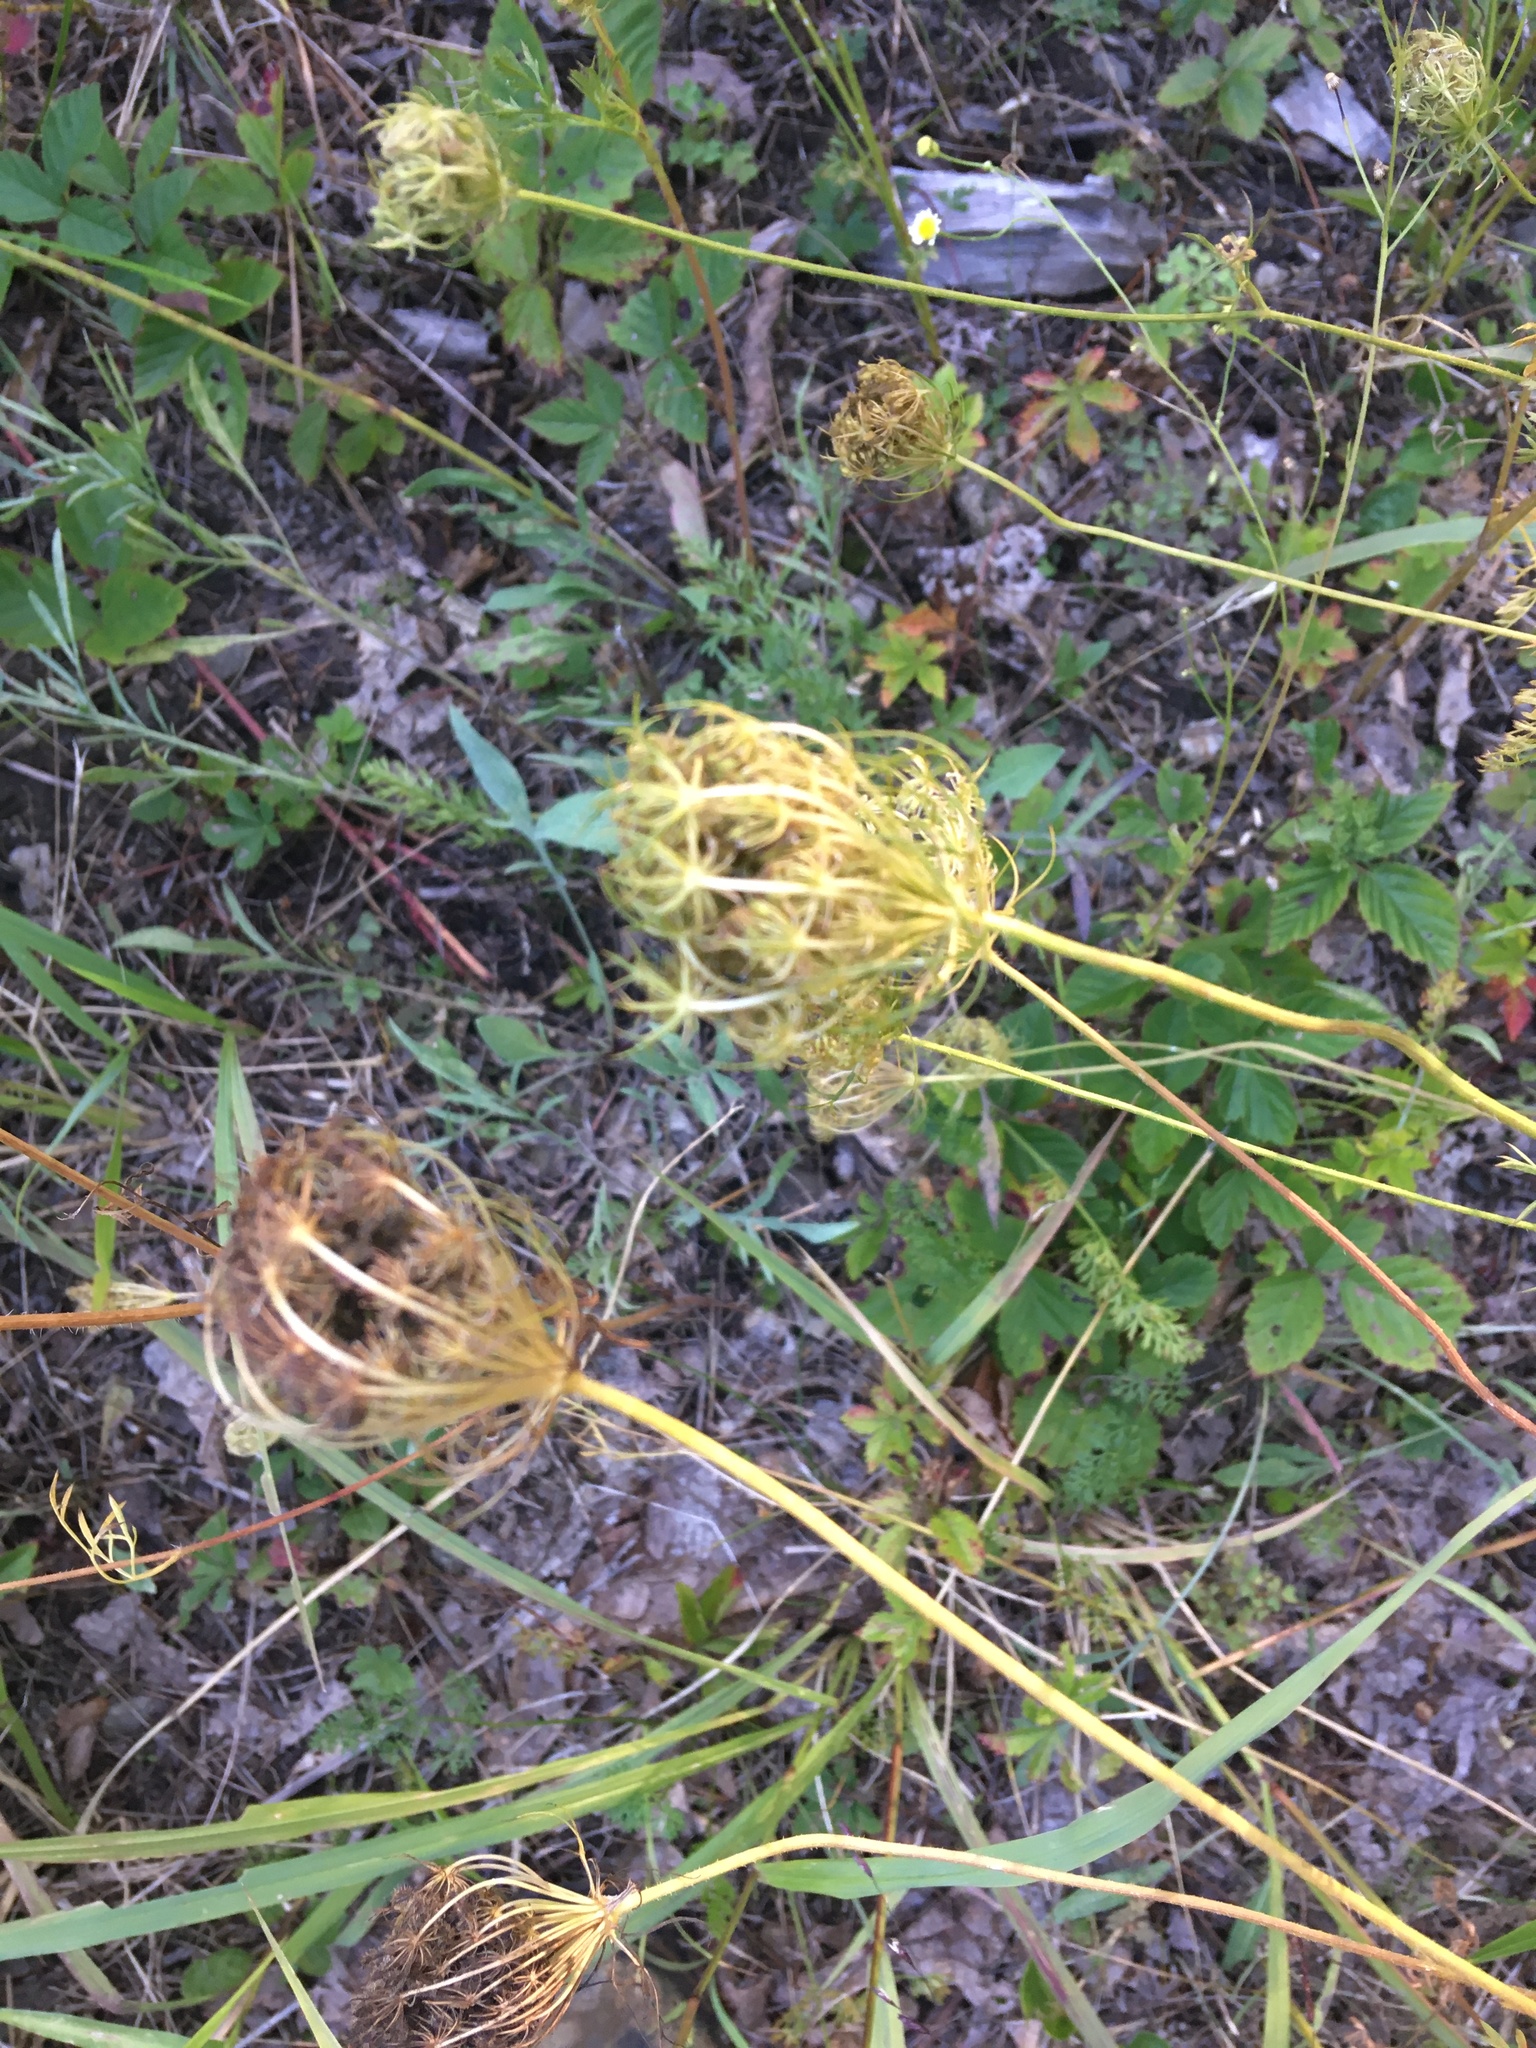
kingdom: Plantae
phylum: Tracheophyta
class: Magnoliopsida
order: Apiales
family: Apiaceae
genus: Daucus
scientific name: Daucus carota
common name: Wild carrot
